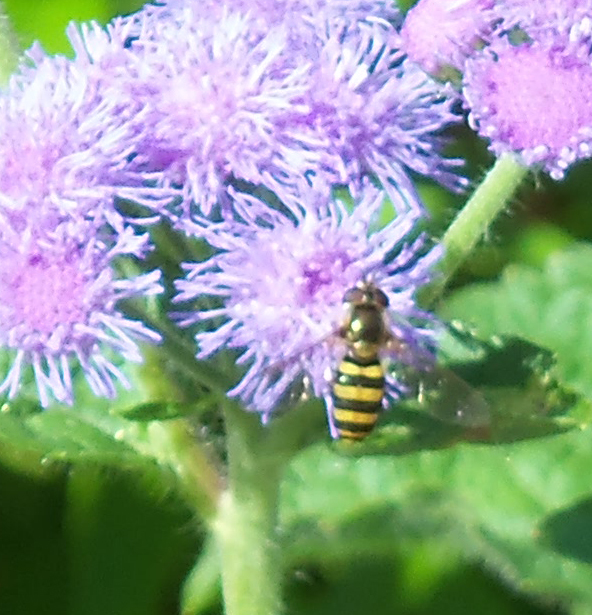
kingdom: Animalia
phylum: Arthropoda
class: Insecta
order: Diptera
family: Syrphidae
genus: Eupeodes
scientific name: Eupeodes
